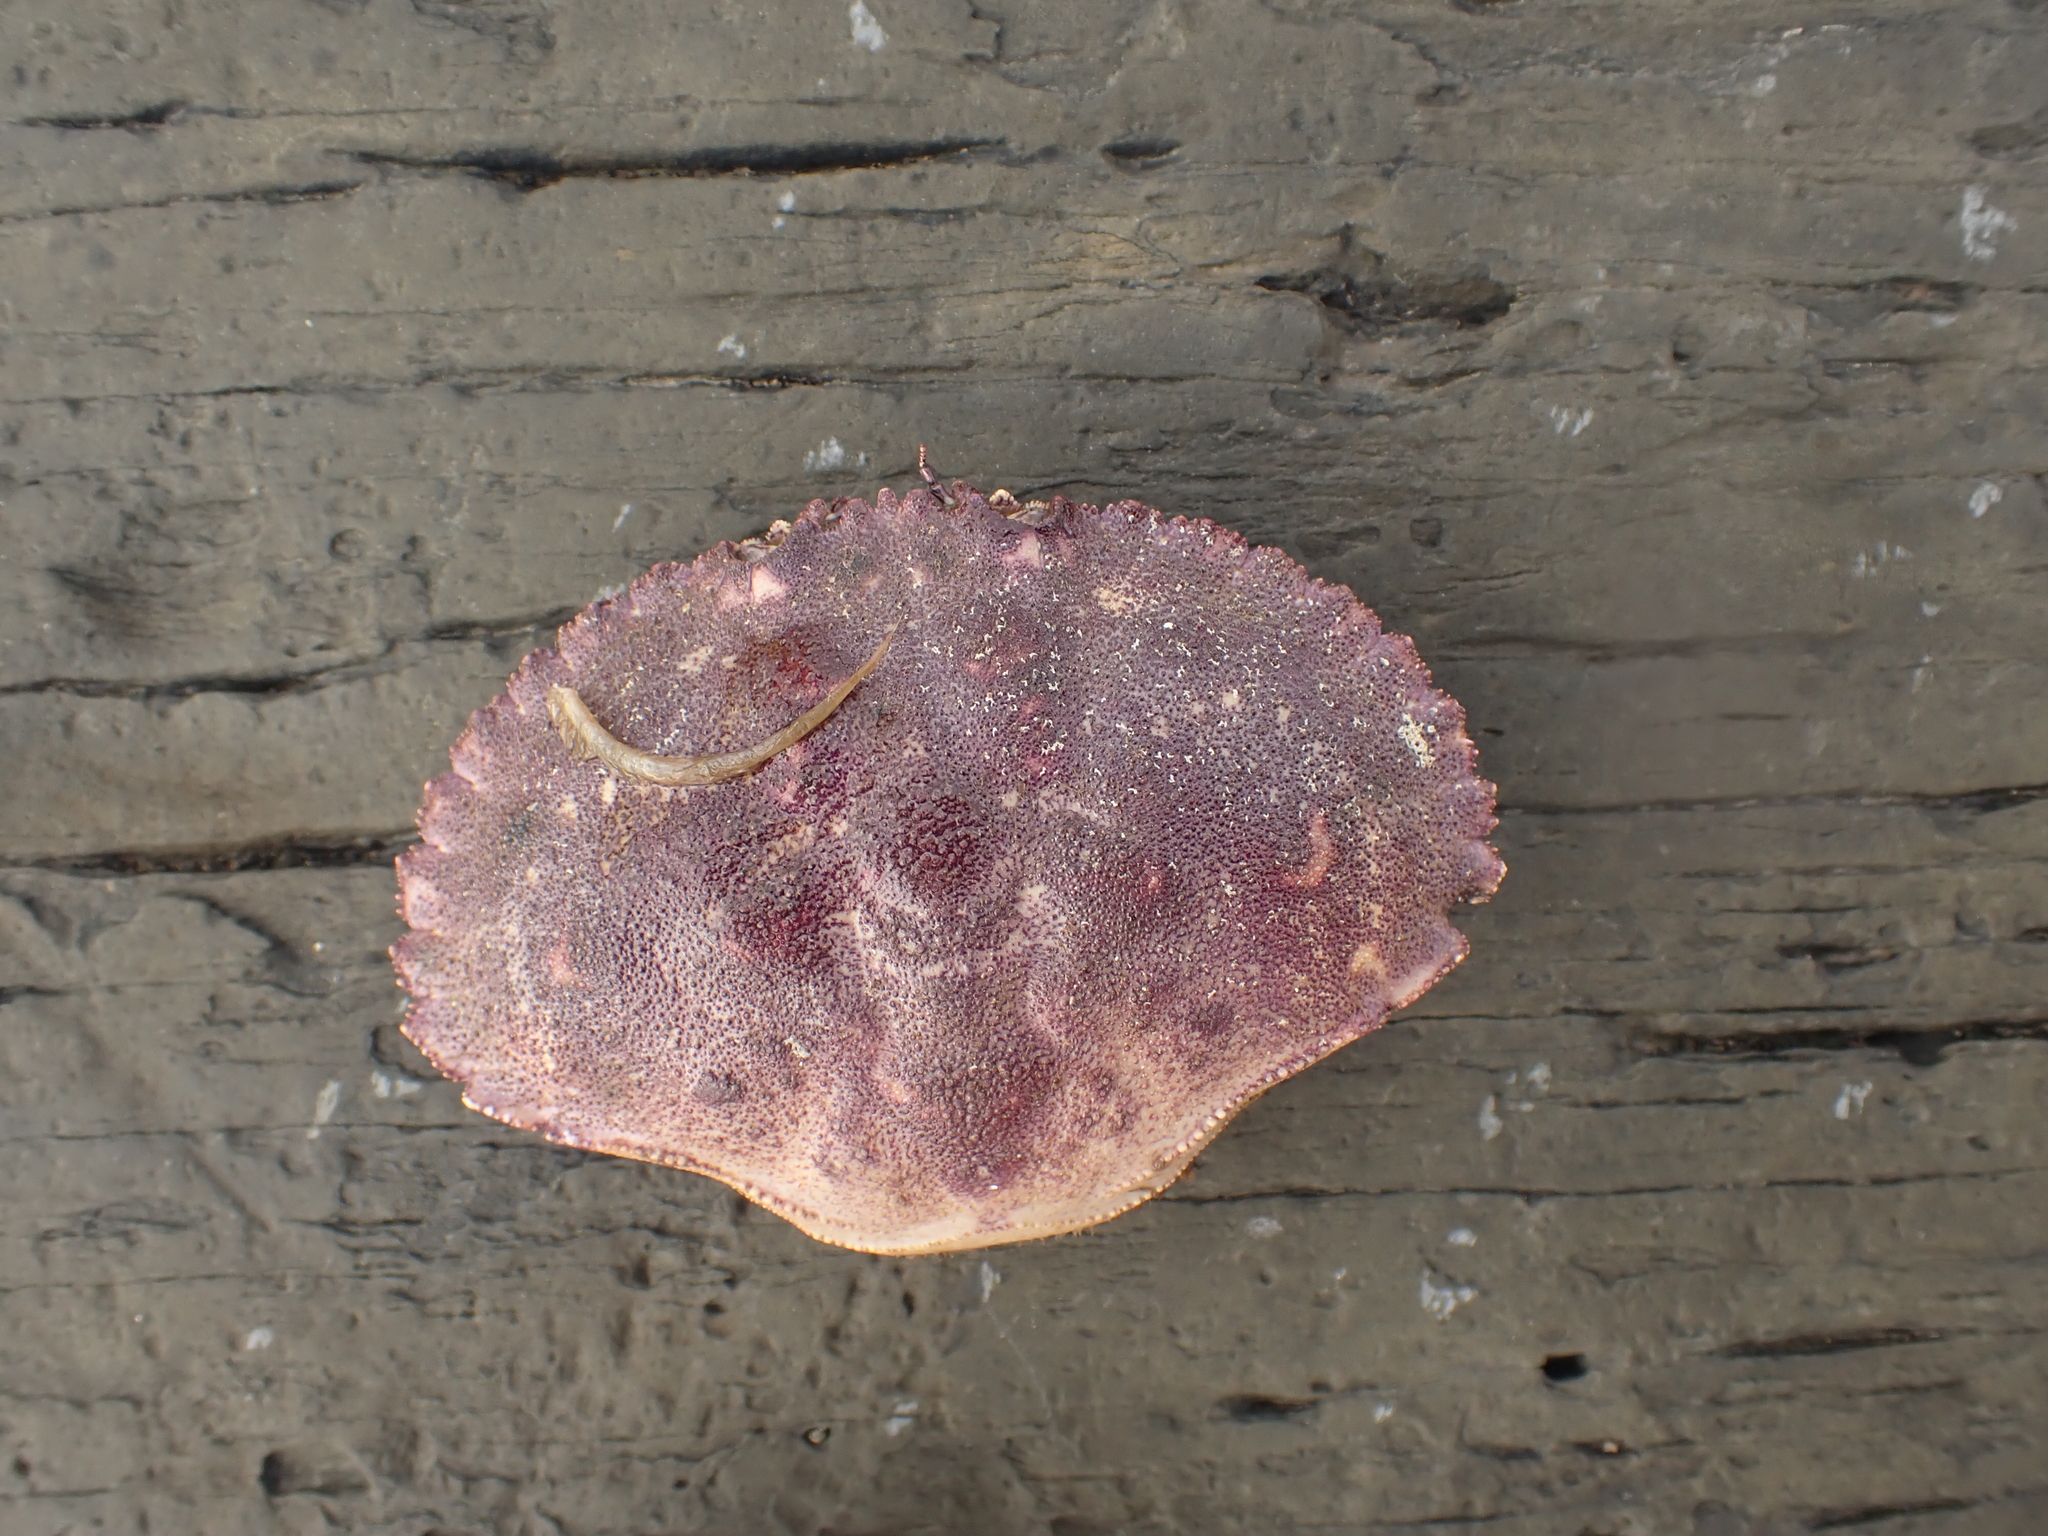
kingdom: Animalia
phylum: Arthropoda
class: Malacostraca
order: Decapoda
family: Cancridae
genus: Cancer
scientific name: Cancer borealis
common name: Jonah crab
